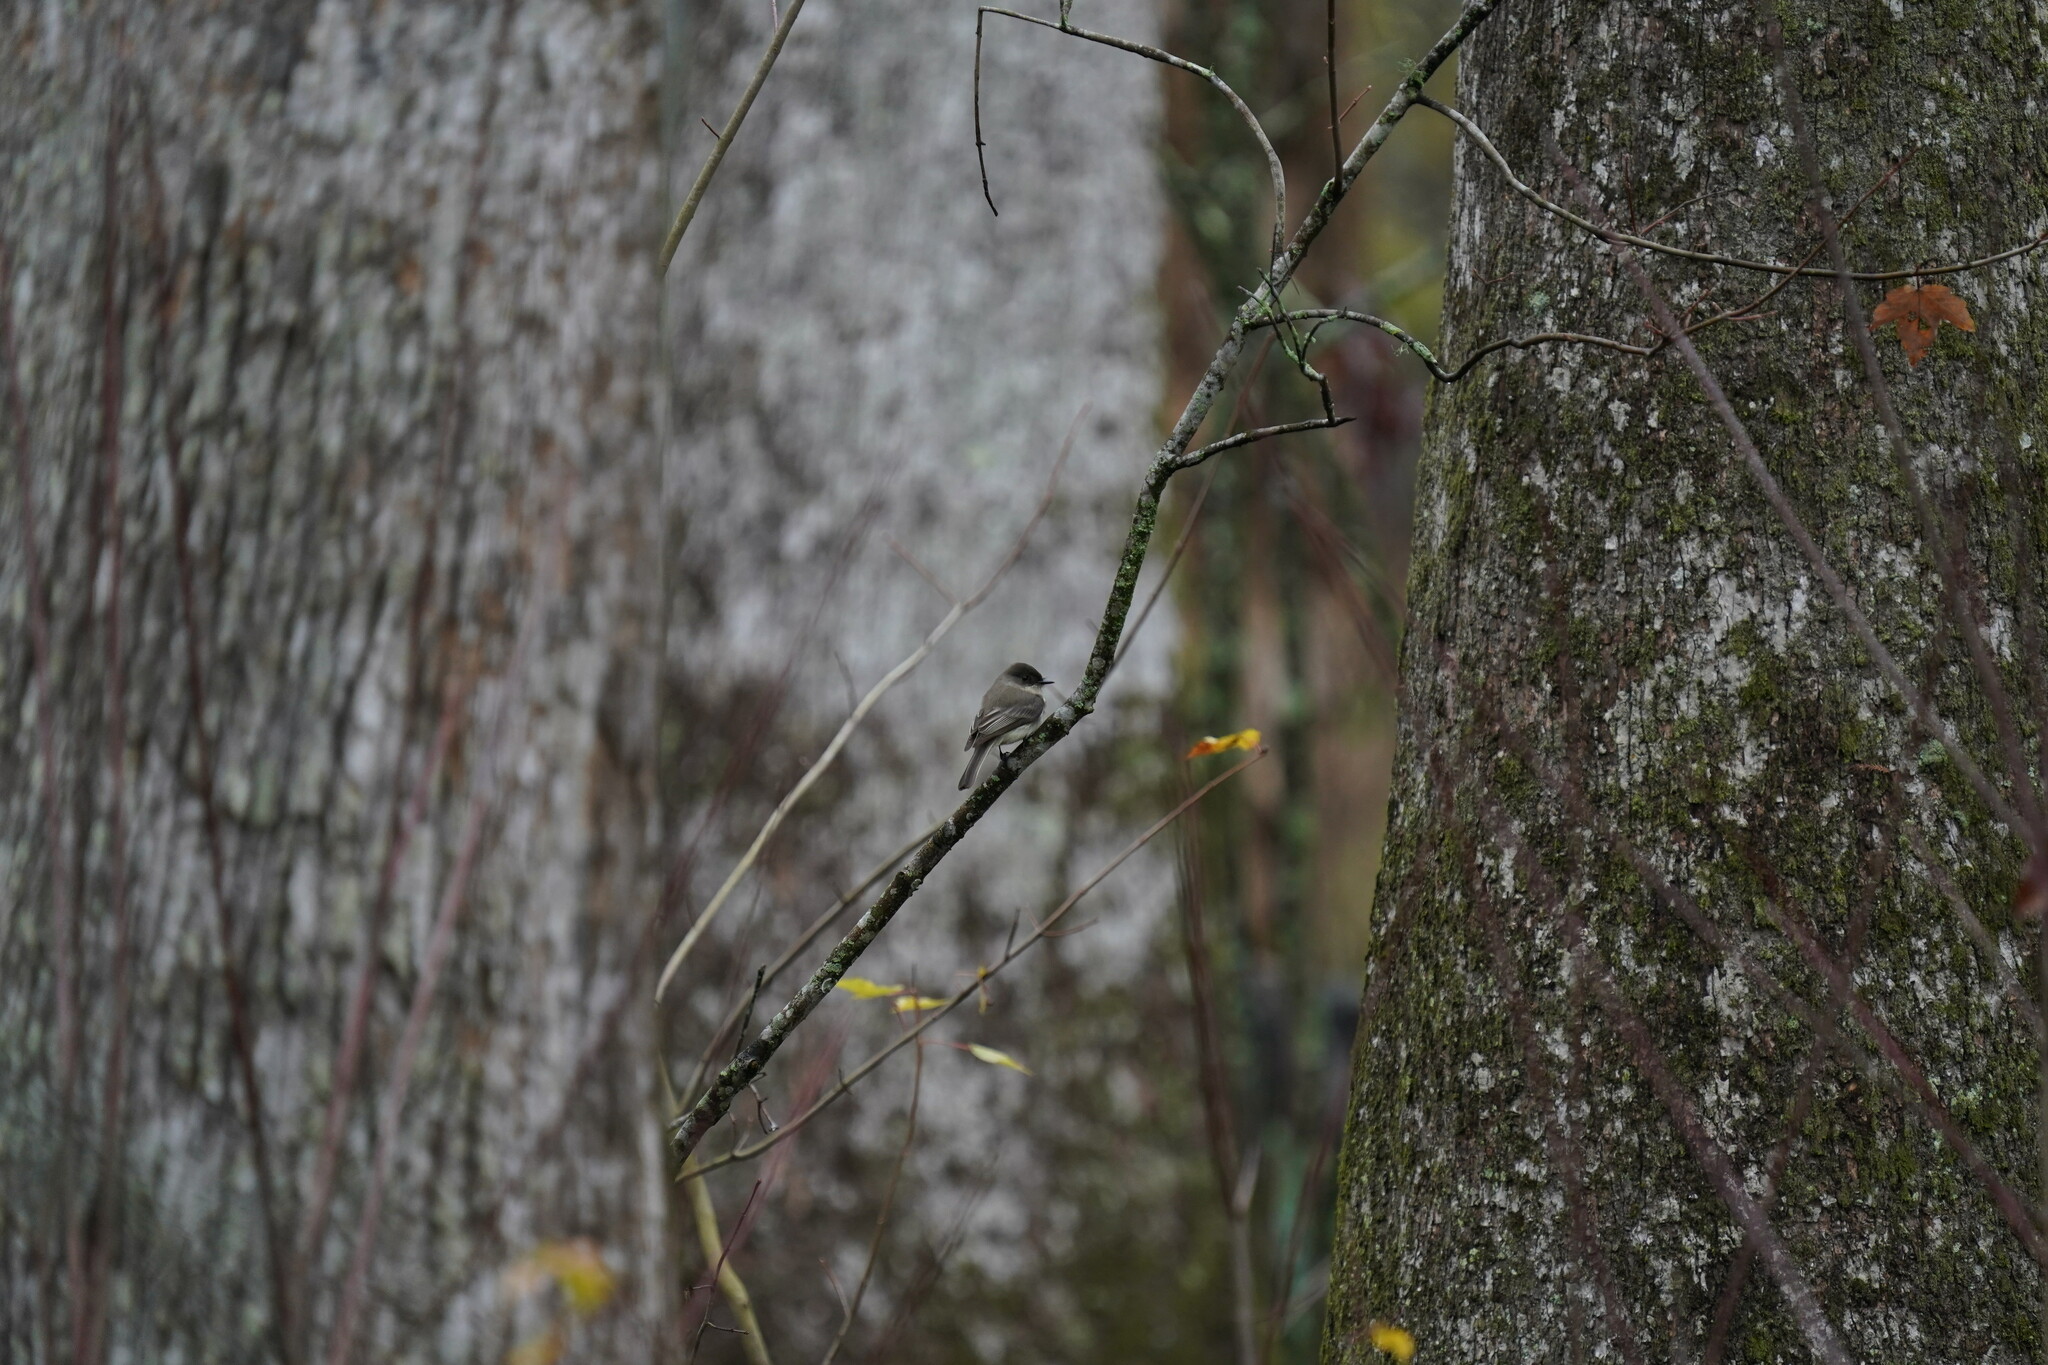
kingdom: Animalia
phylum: Chordata
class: Aves
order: Passeriformes
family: Tyrannidae
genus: Sayornis
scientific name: Sayornis phoebe
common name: Eastern phoebe
